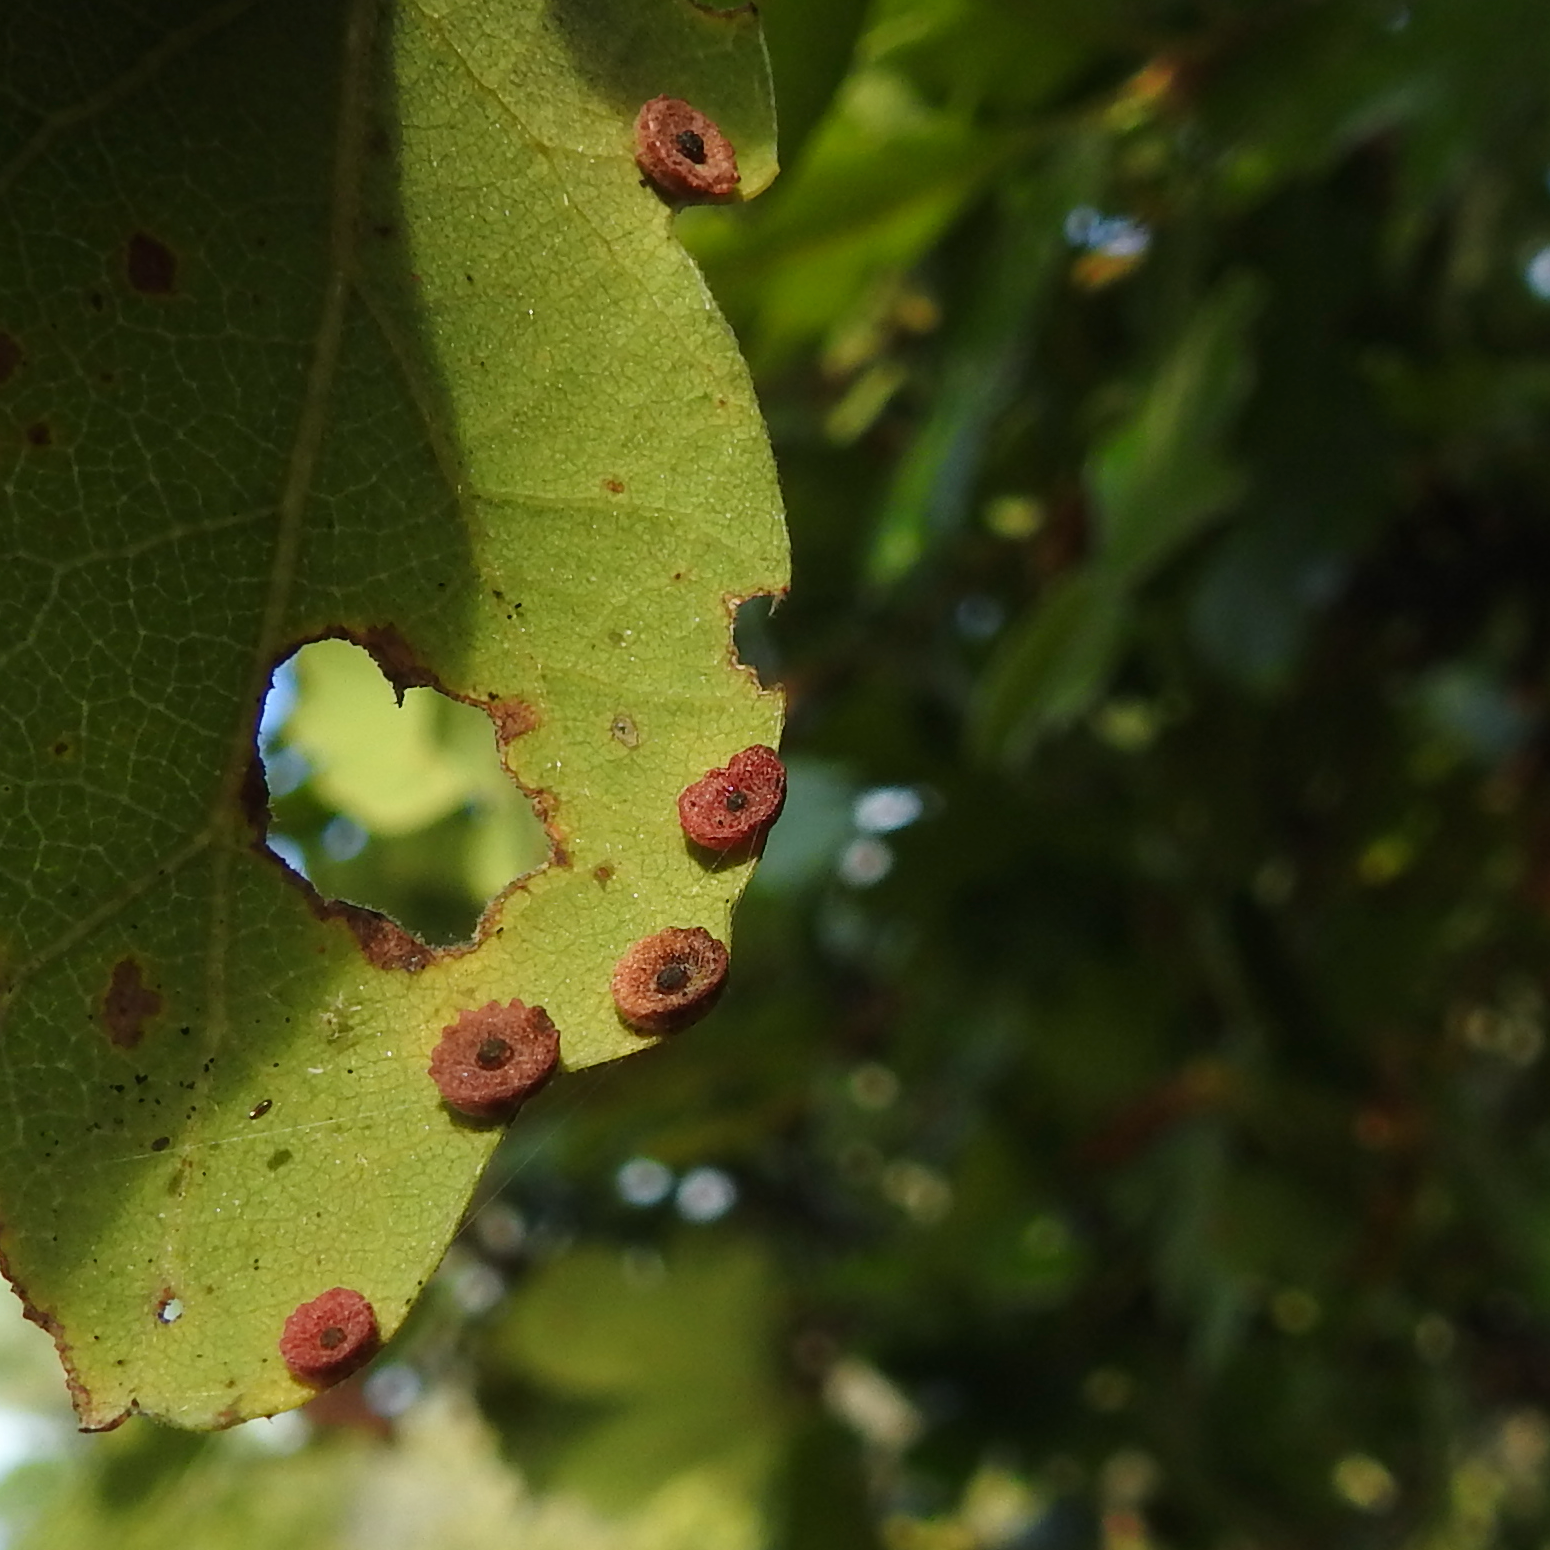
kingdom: Animalia
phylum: Arthropoda
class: Insecta
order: Hymenoptera
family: Cynipidae
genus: Andricus
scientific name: Andricus
